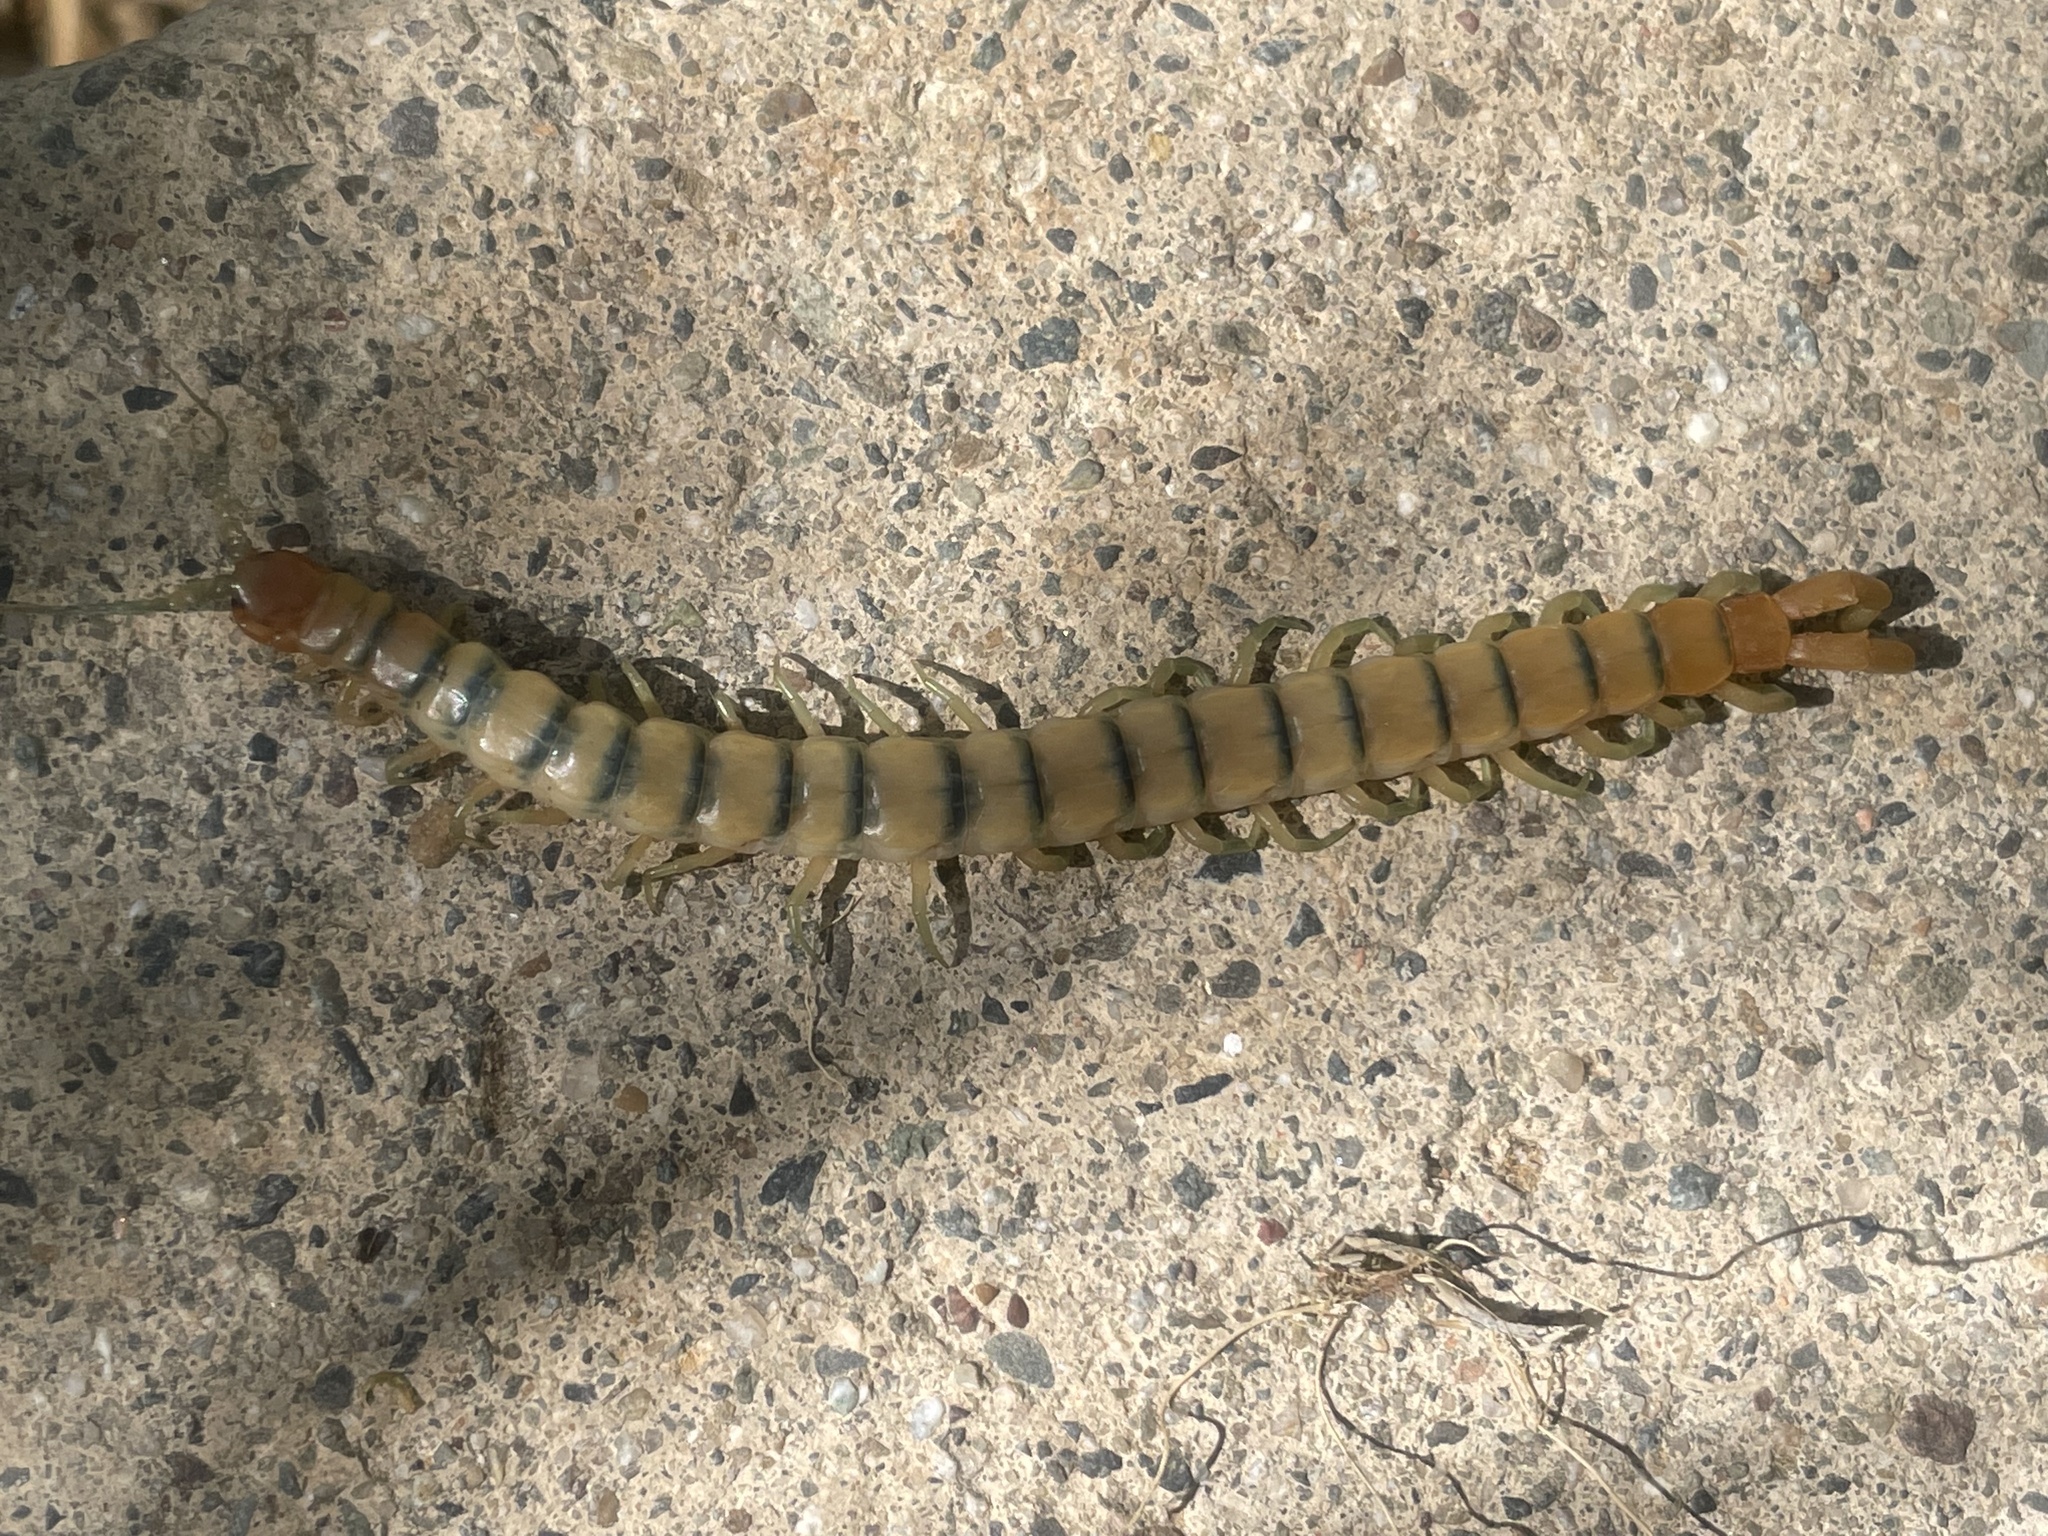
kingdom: Animalia
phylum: Arthropoda
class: Chilopoda
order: Scolopendromorpha
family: Scolopendridae
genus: Scolopendra
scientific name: Scolopendra polymorpha
